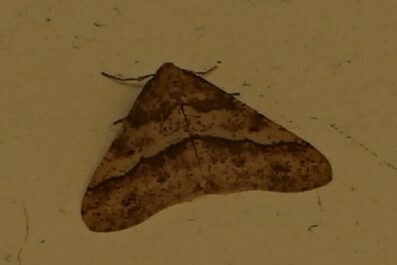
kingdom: Animalia
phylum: Arthropoda
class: Insecta
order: Lepidoptera
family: Geometridae
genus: Erannis
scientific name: Erannis golda
